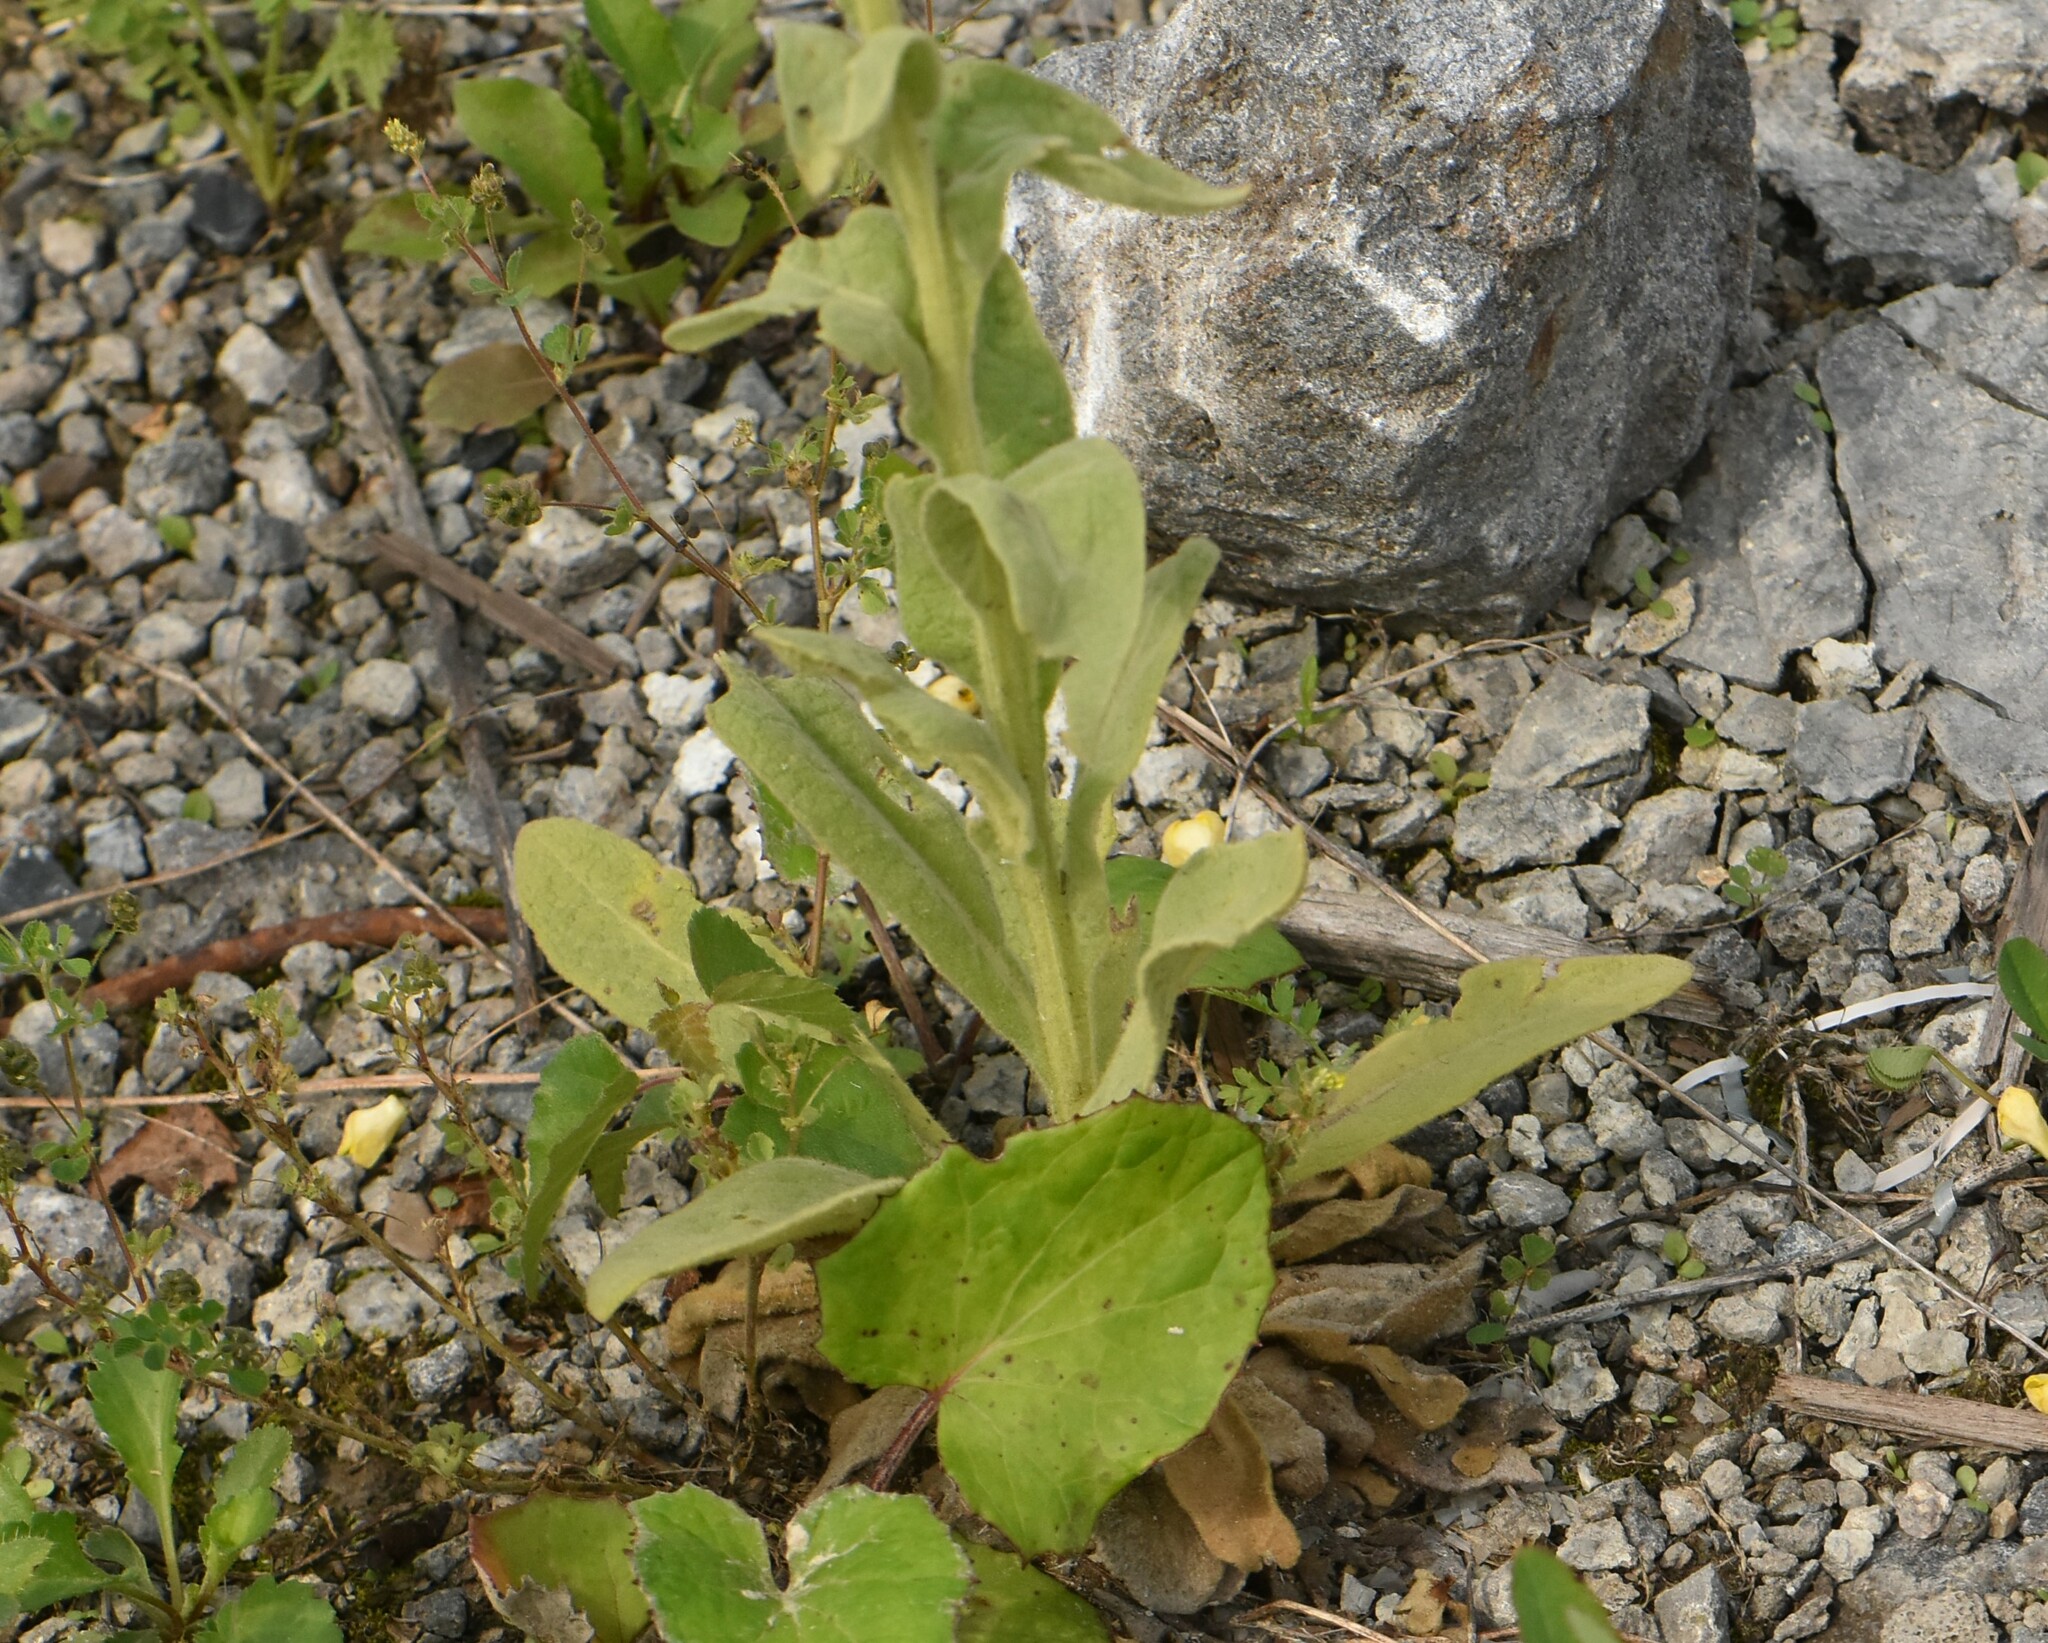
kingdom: Plantae
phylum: Tracheophyta
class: Magnoliopsida
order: Lamiales
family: Scrophulariaceae
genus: Verbascum
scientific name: Verbascum thapsus
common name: Common mullein
